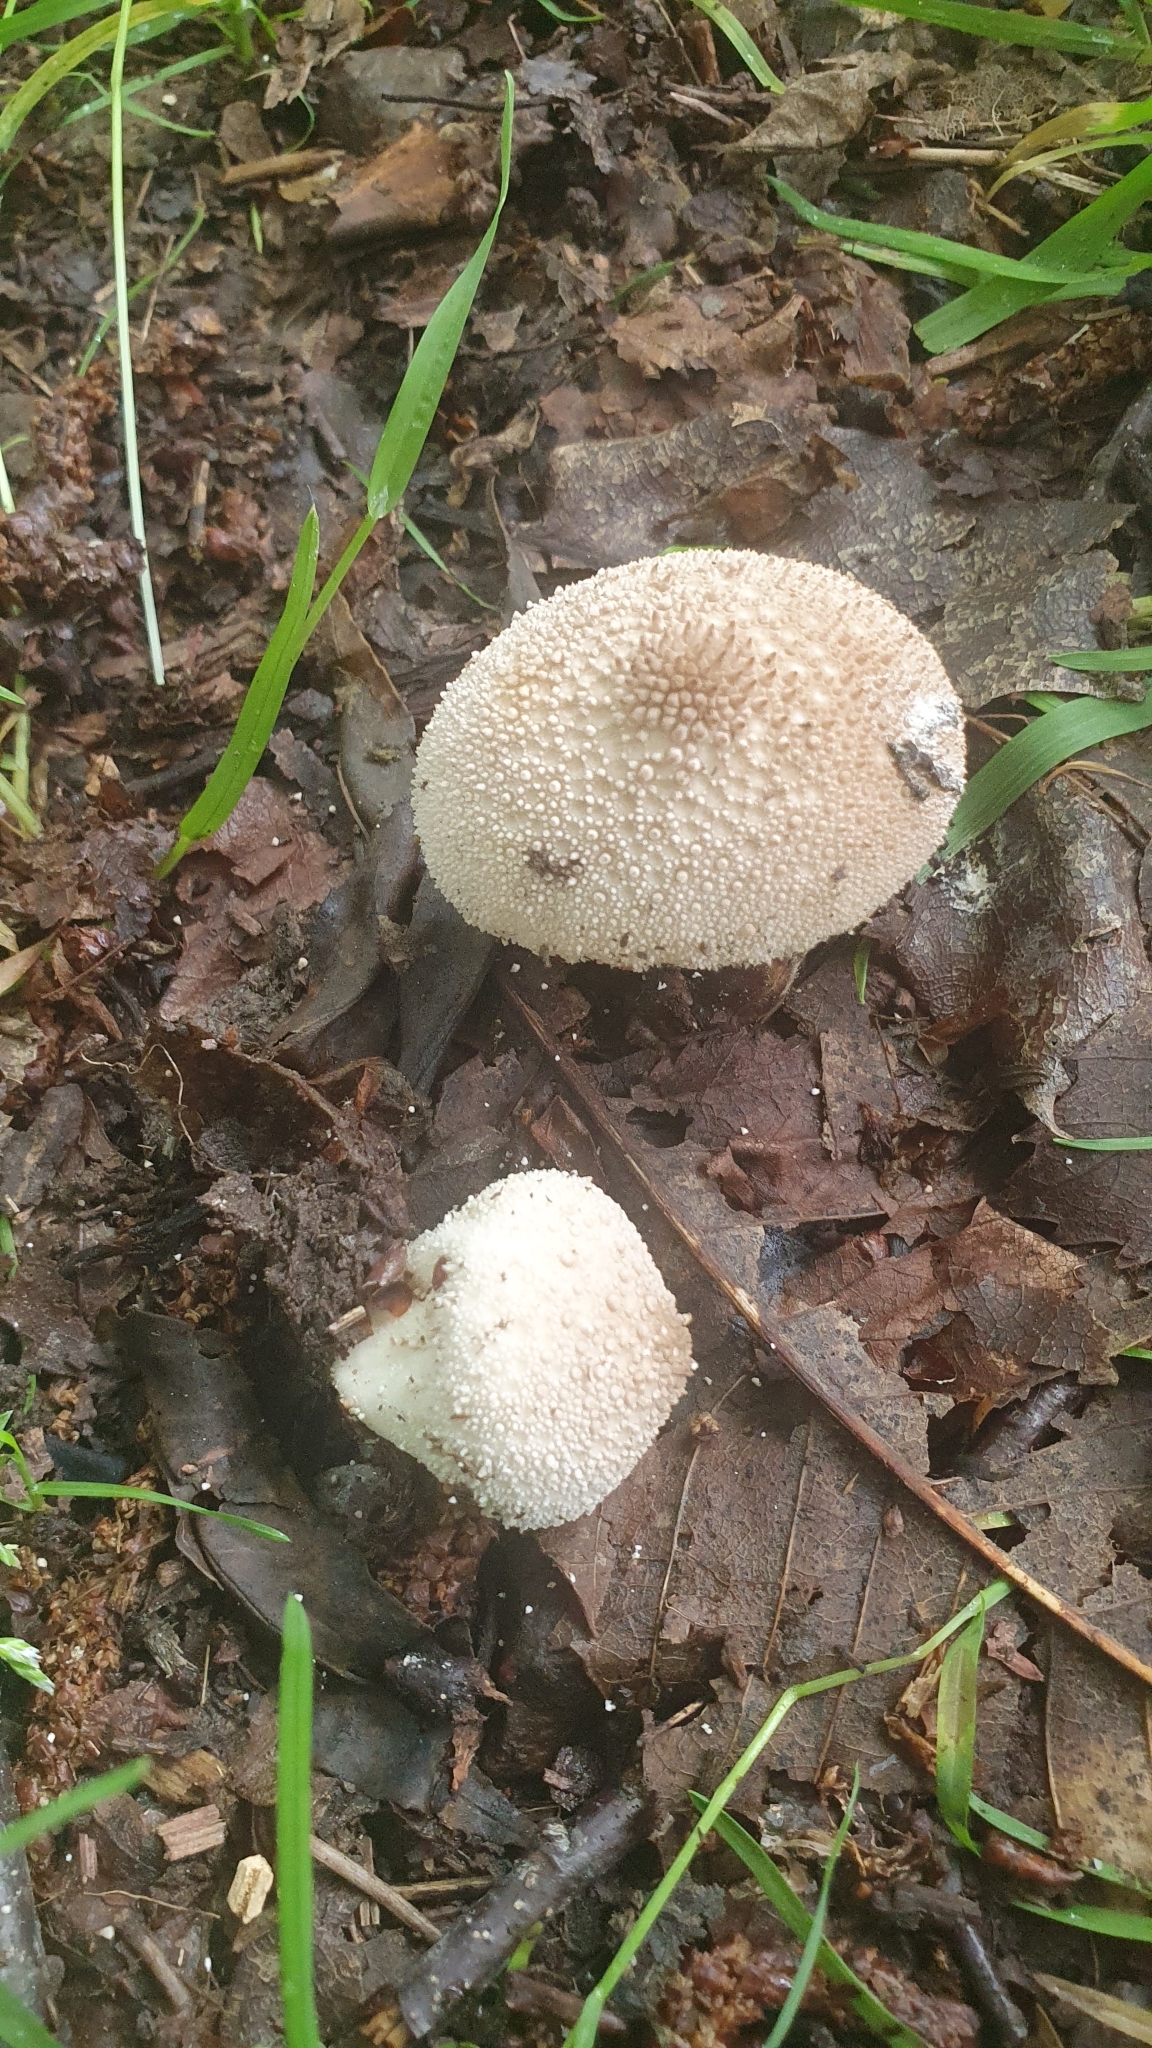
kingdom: Fungi
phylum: Basidiomycota
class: Agaricomycetes
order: Agaricales
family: Lycoperdaceae
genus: Lycoperdon
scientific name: Lycoperdon perlatum
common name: Common puffball
